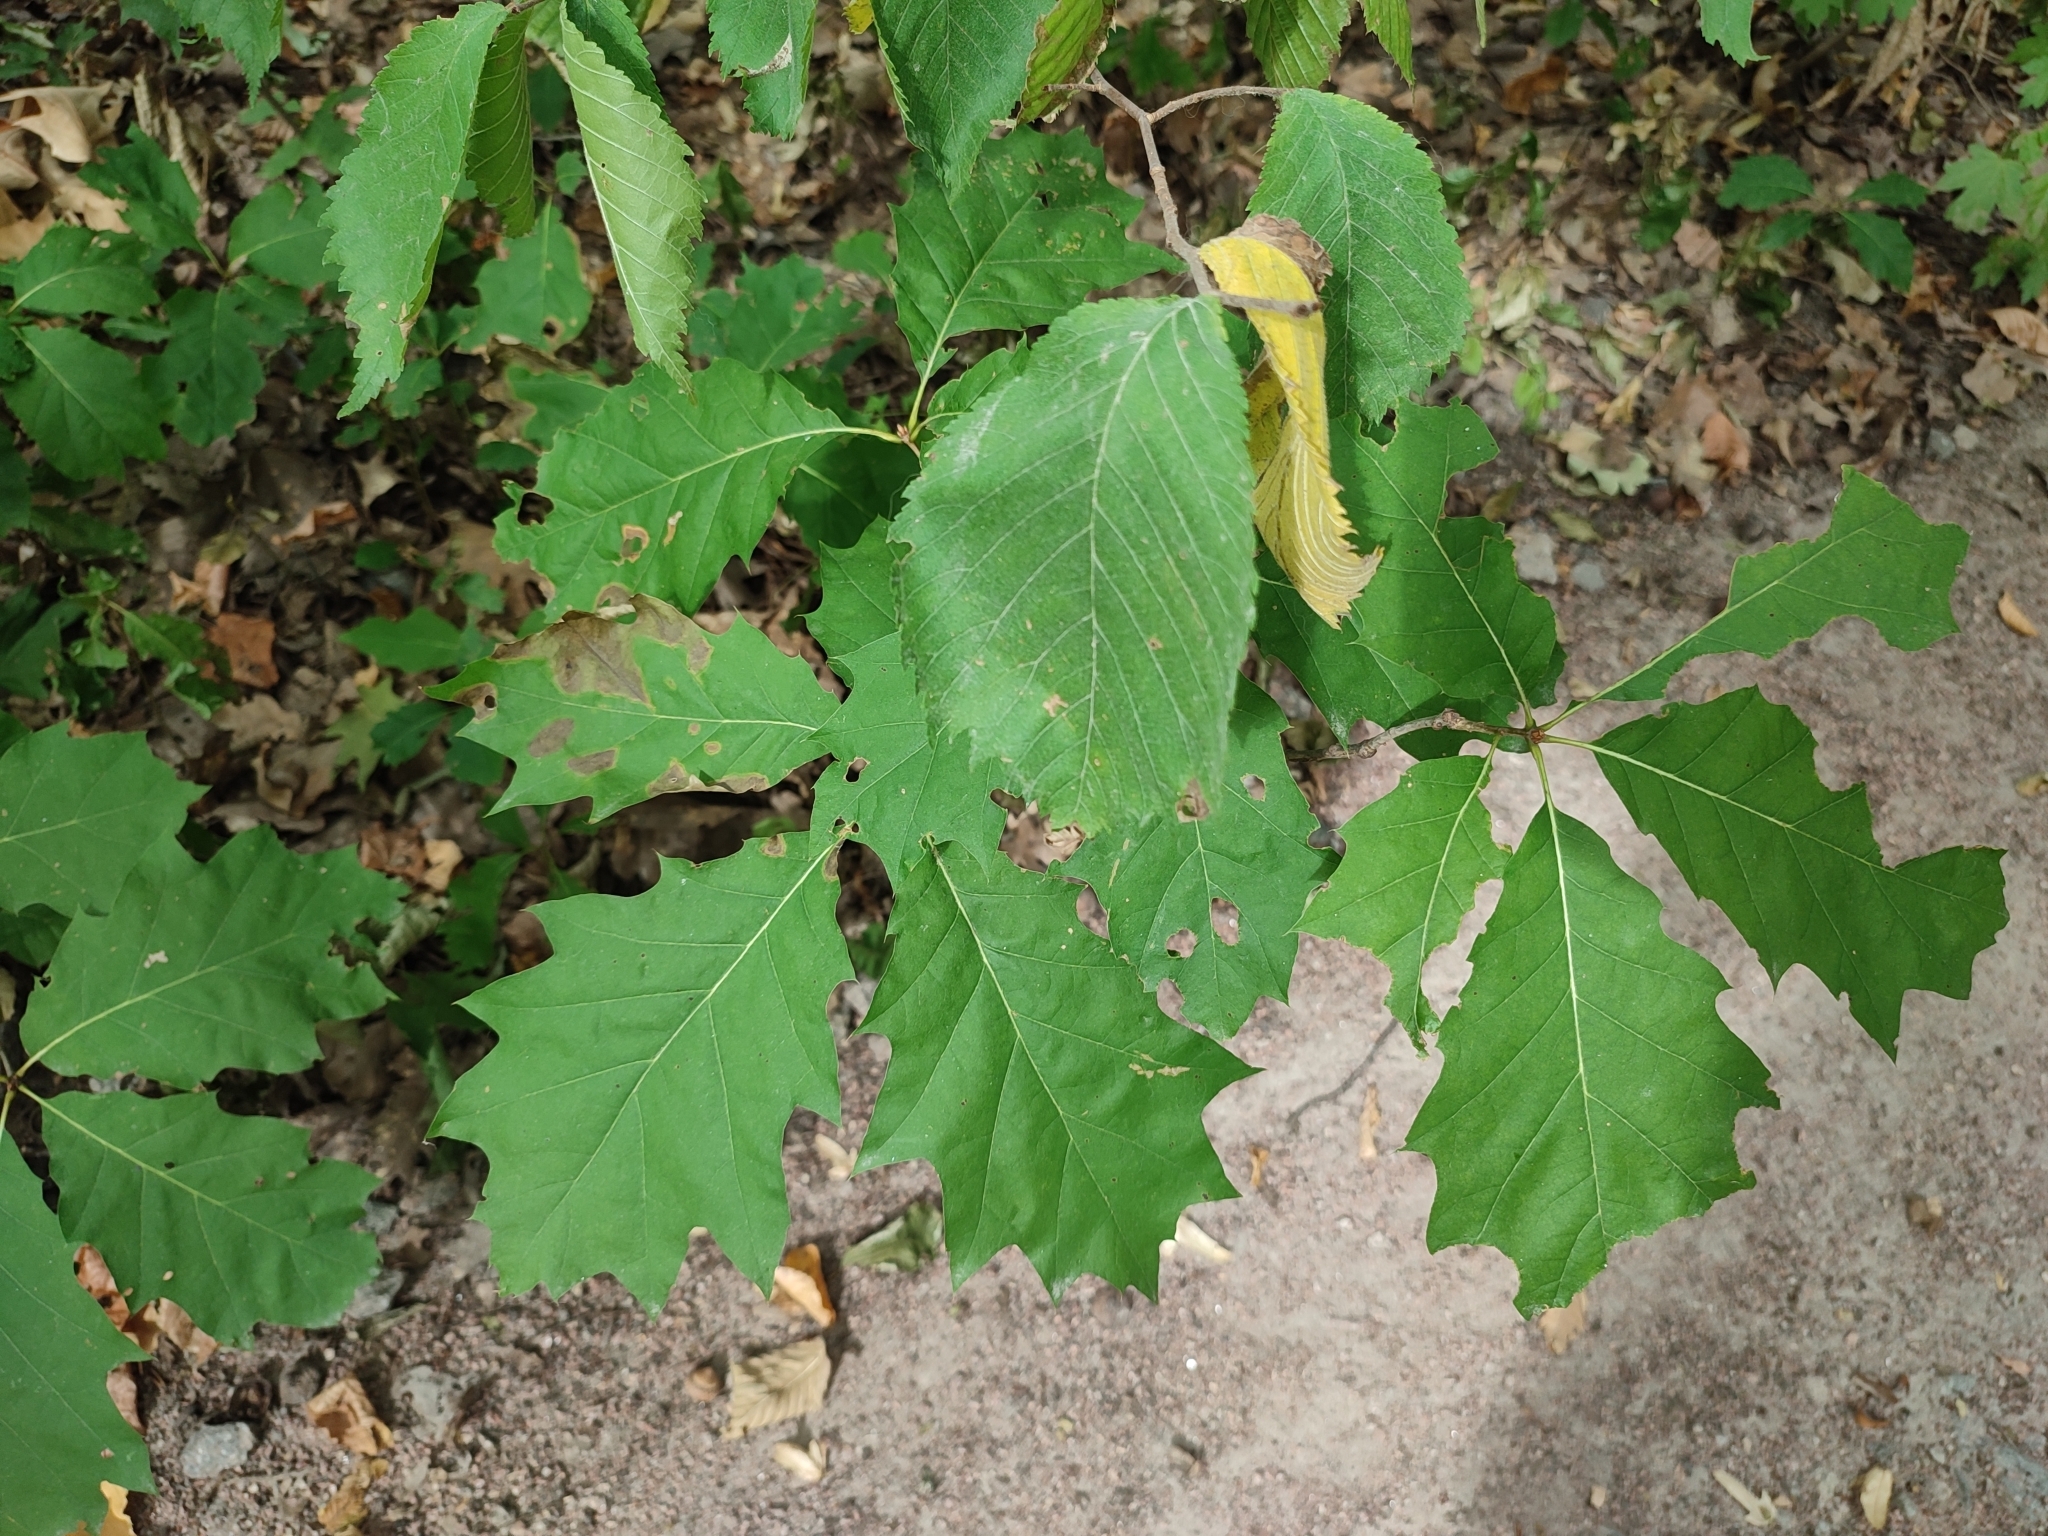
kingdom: Plantae
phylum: Tracheophyta
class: Magnoliopsida
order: Fagales
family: Fagaceae
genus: Quercus
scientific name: Quercus rubra
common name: Red oak
